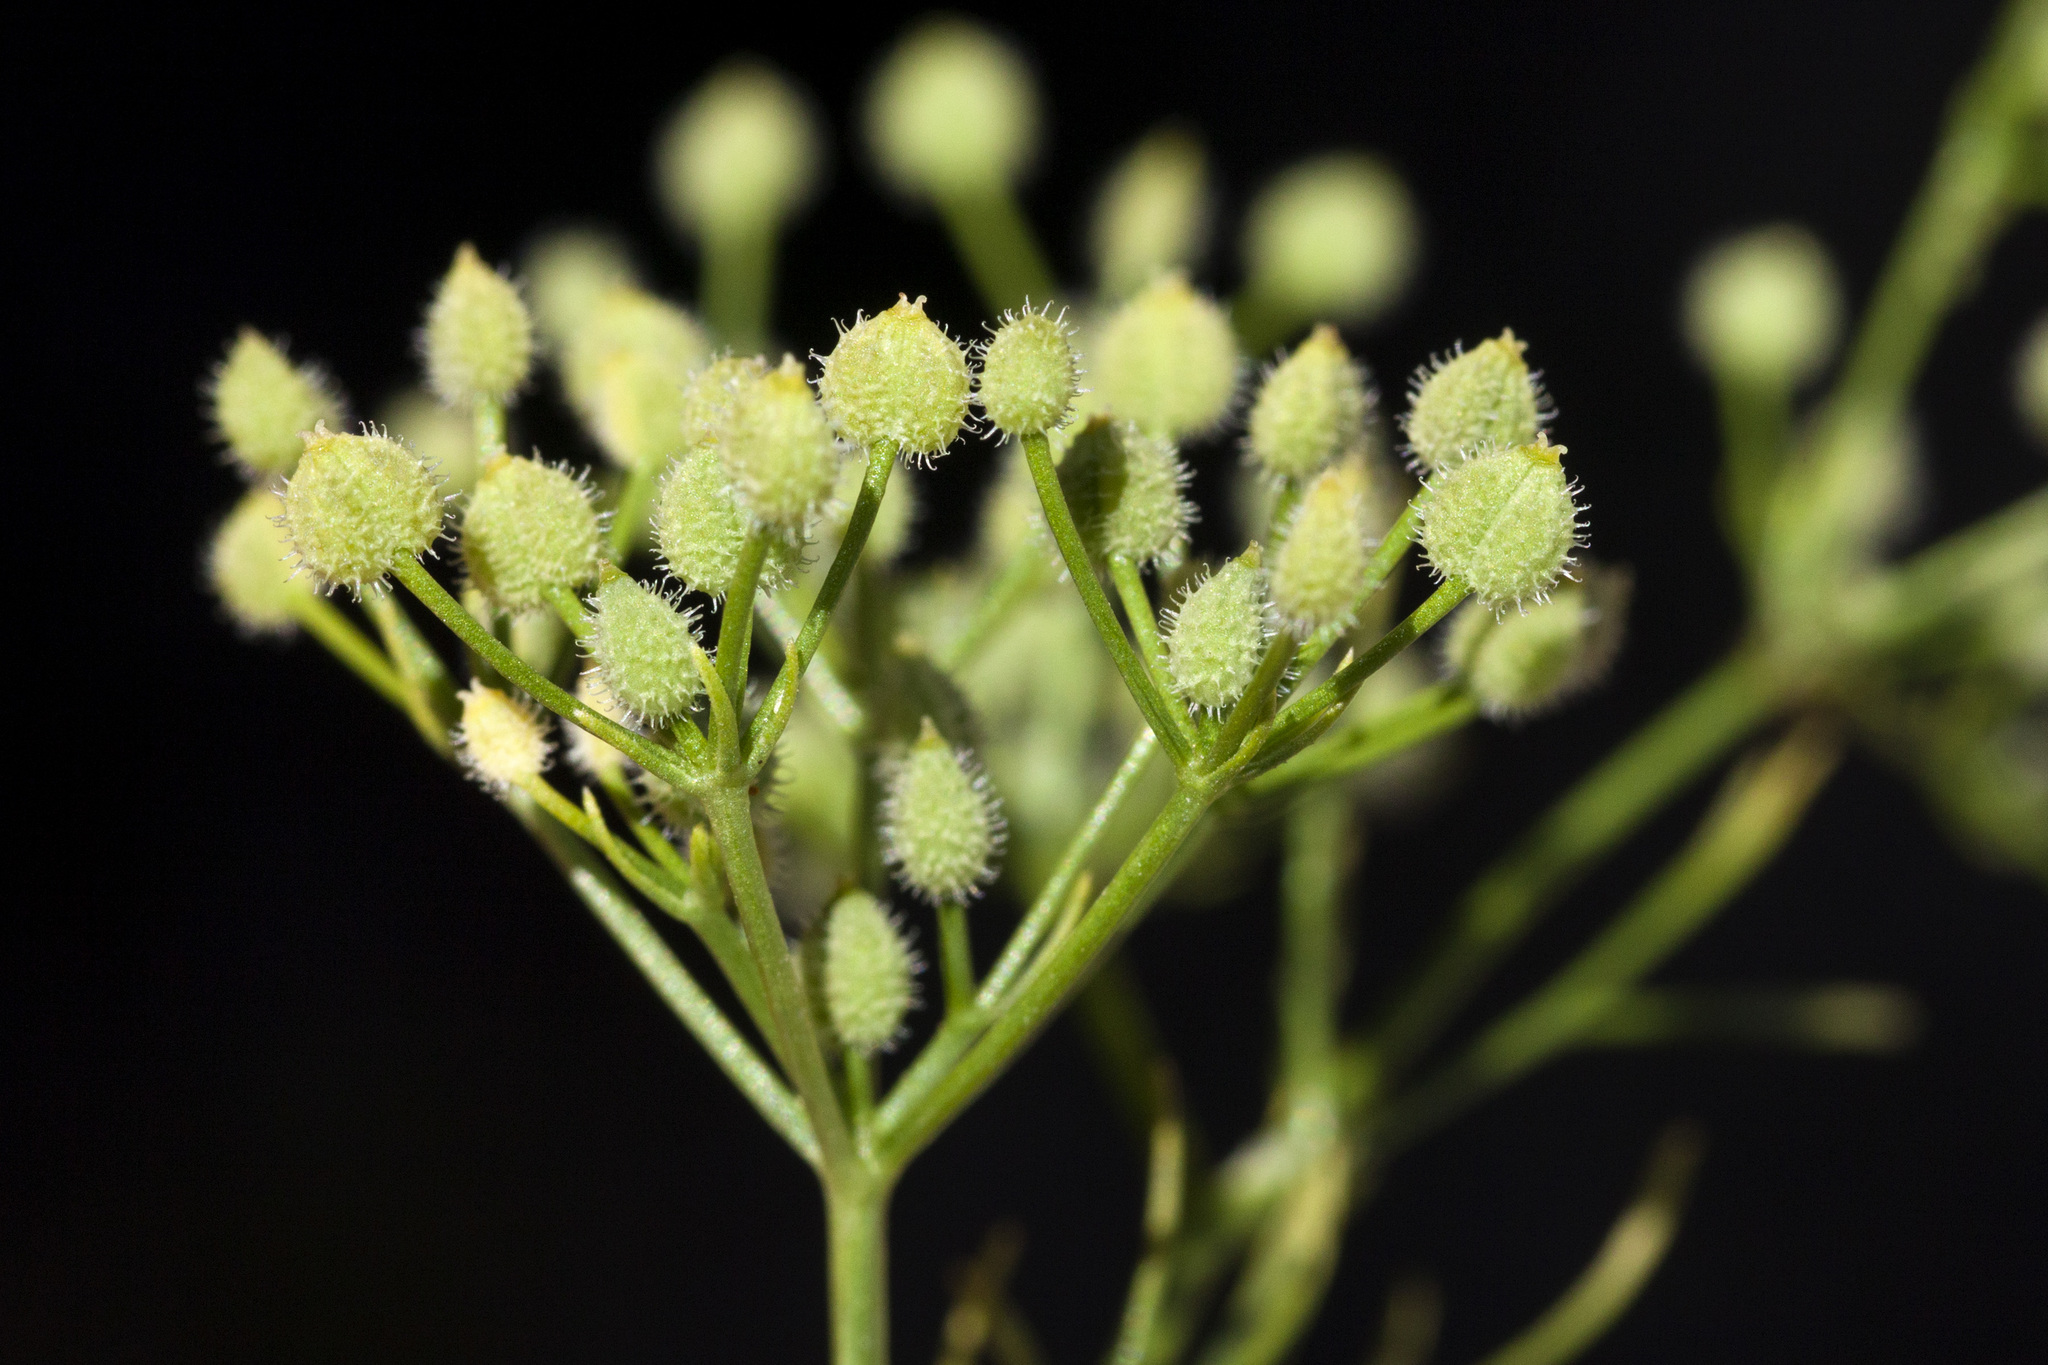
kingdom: Plantae
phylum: Tracheophyta
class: Magnoliopsida
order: Apiales
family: Apiaceae
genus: Spermolepis
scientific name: Spermolepis echinata
